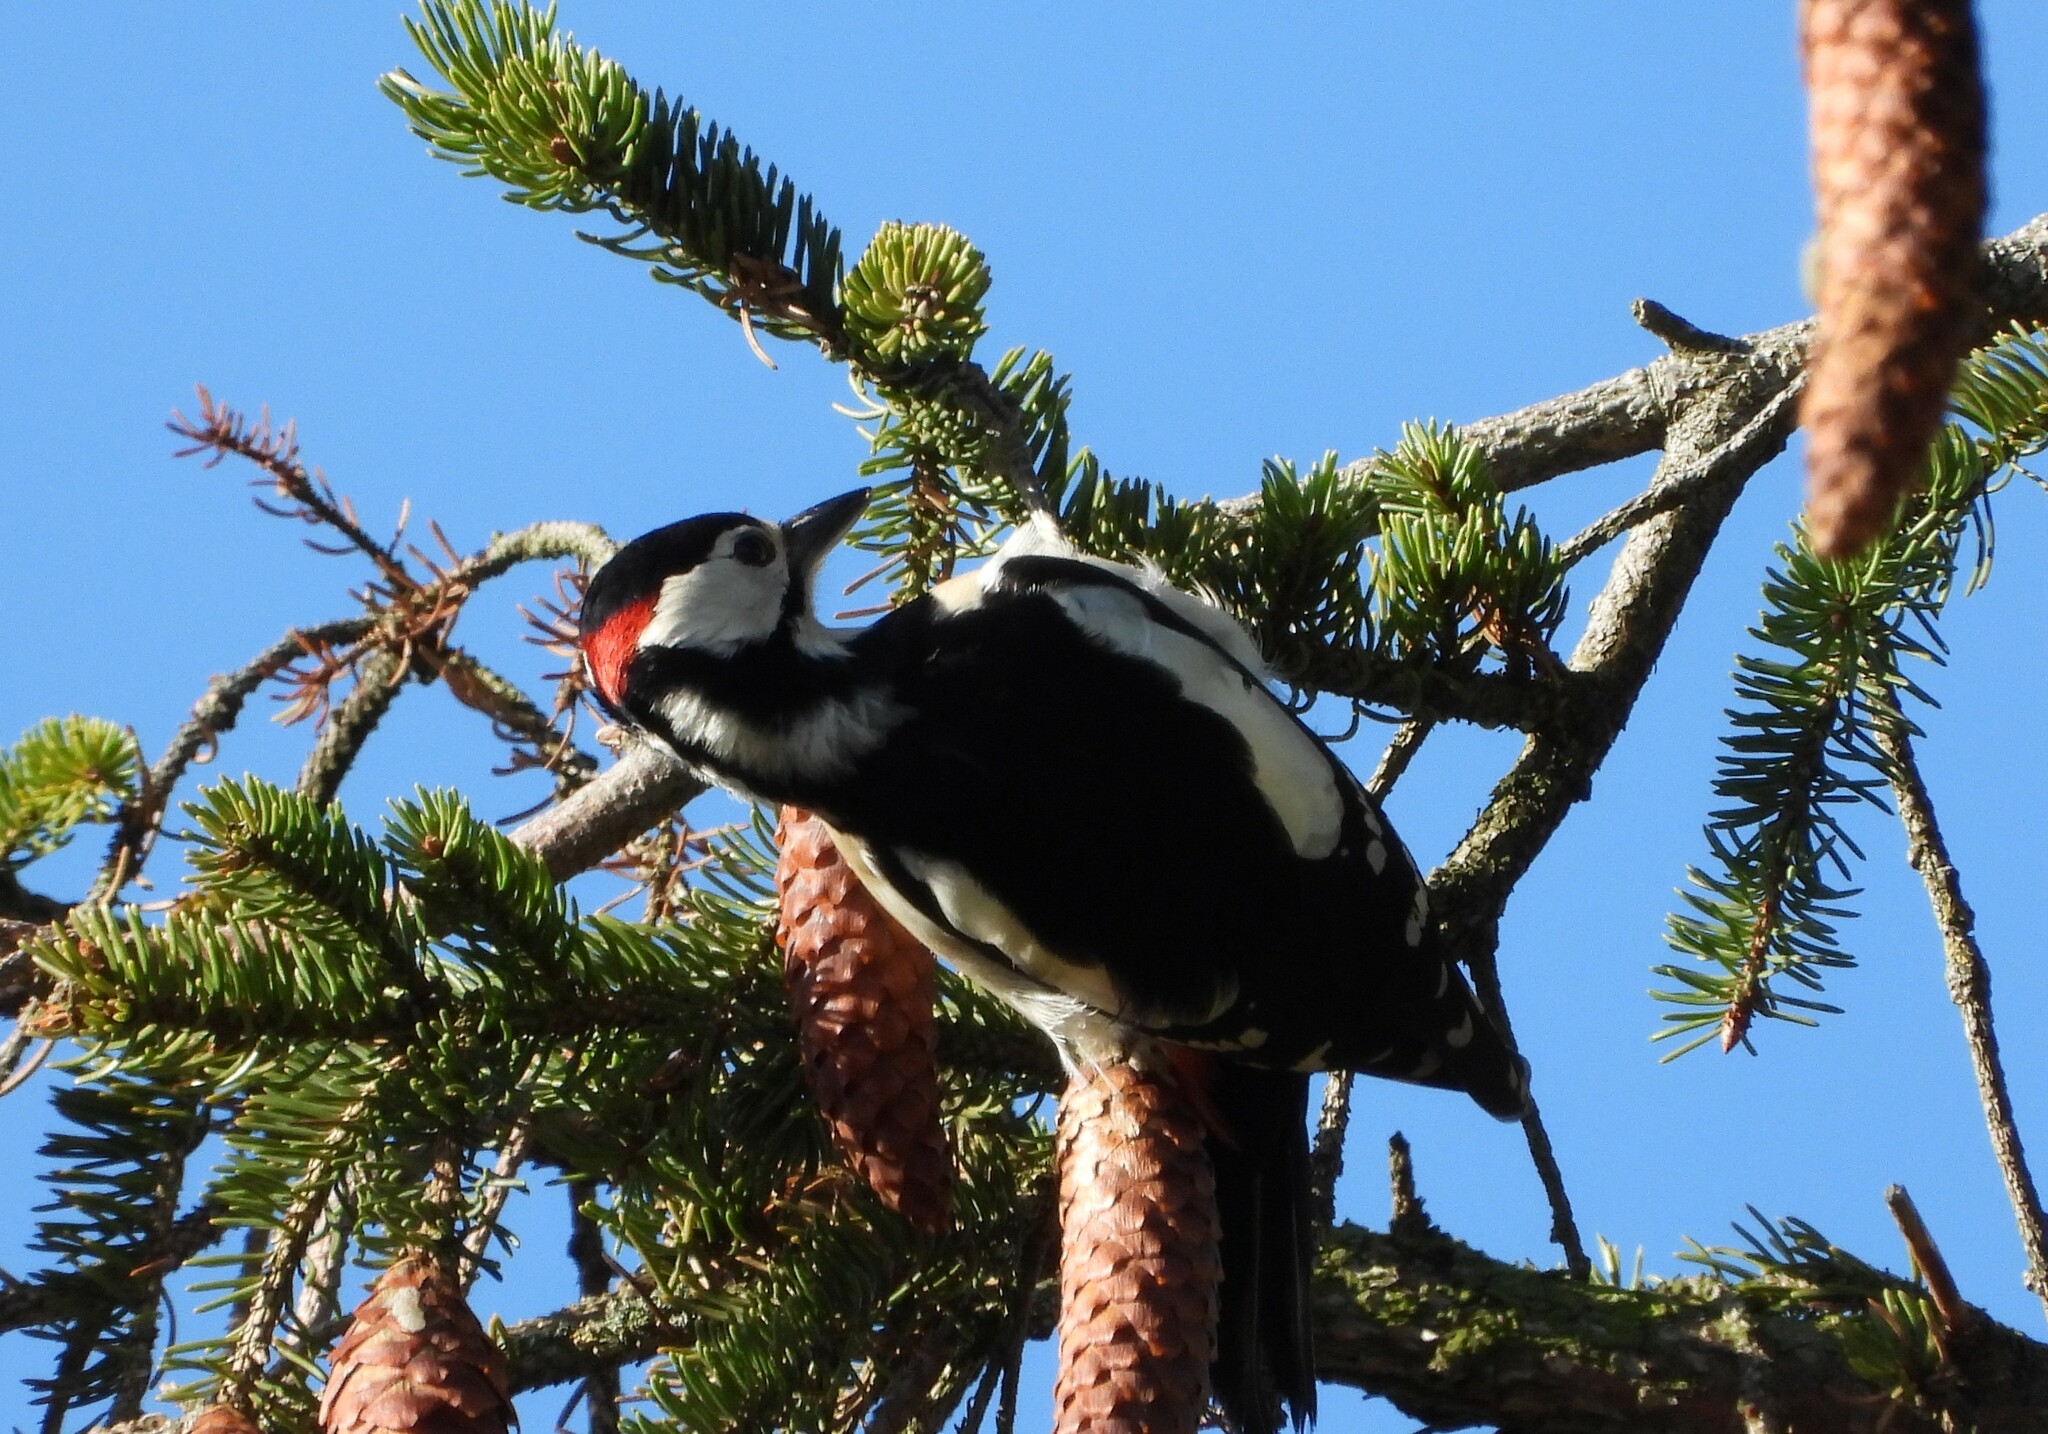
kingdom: Animalia
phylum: Chordata
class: Aves
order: Piciformes
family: Picidae
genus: Dendrocopos
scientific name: Dendrocopos major
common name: Great spotted woodpecker
